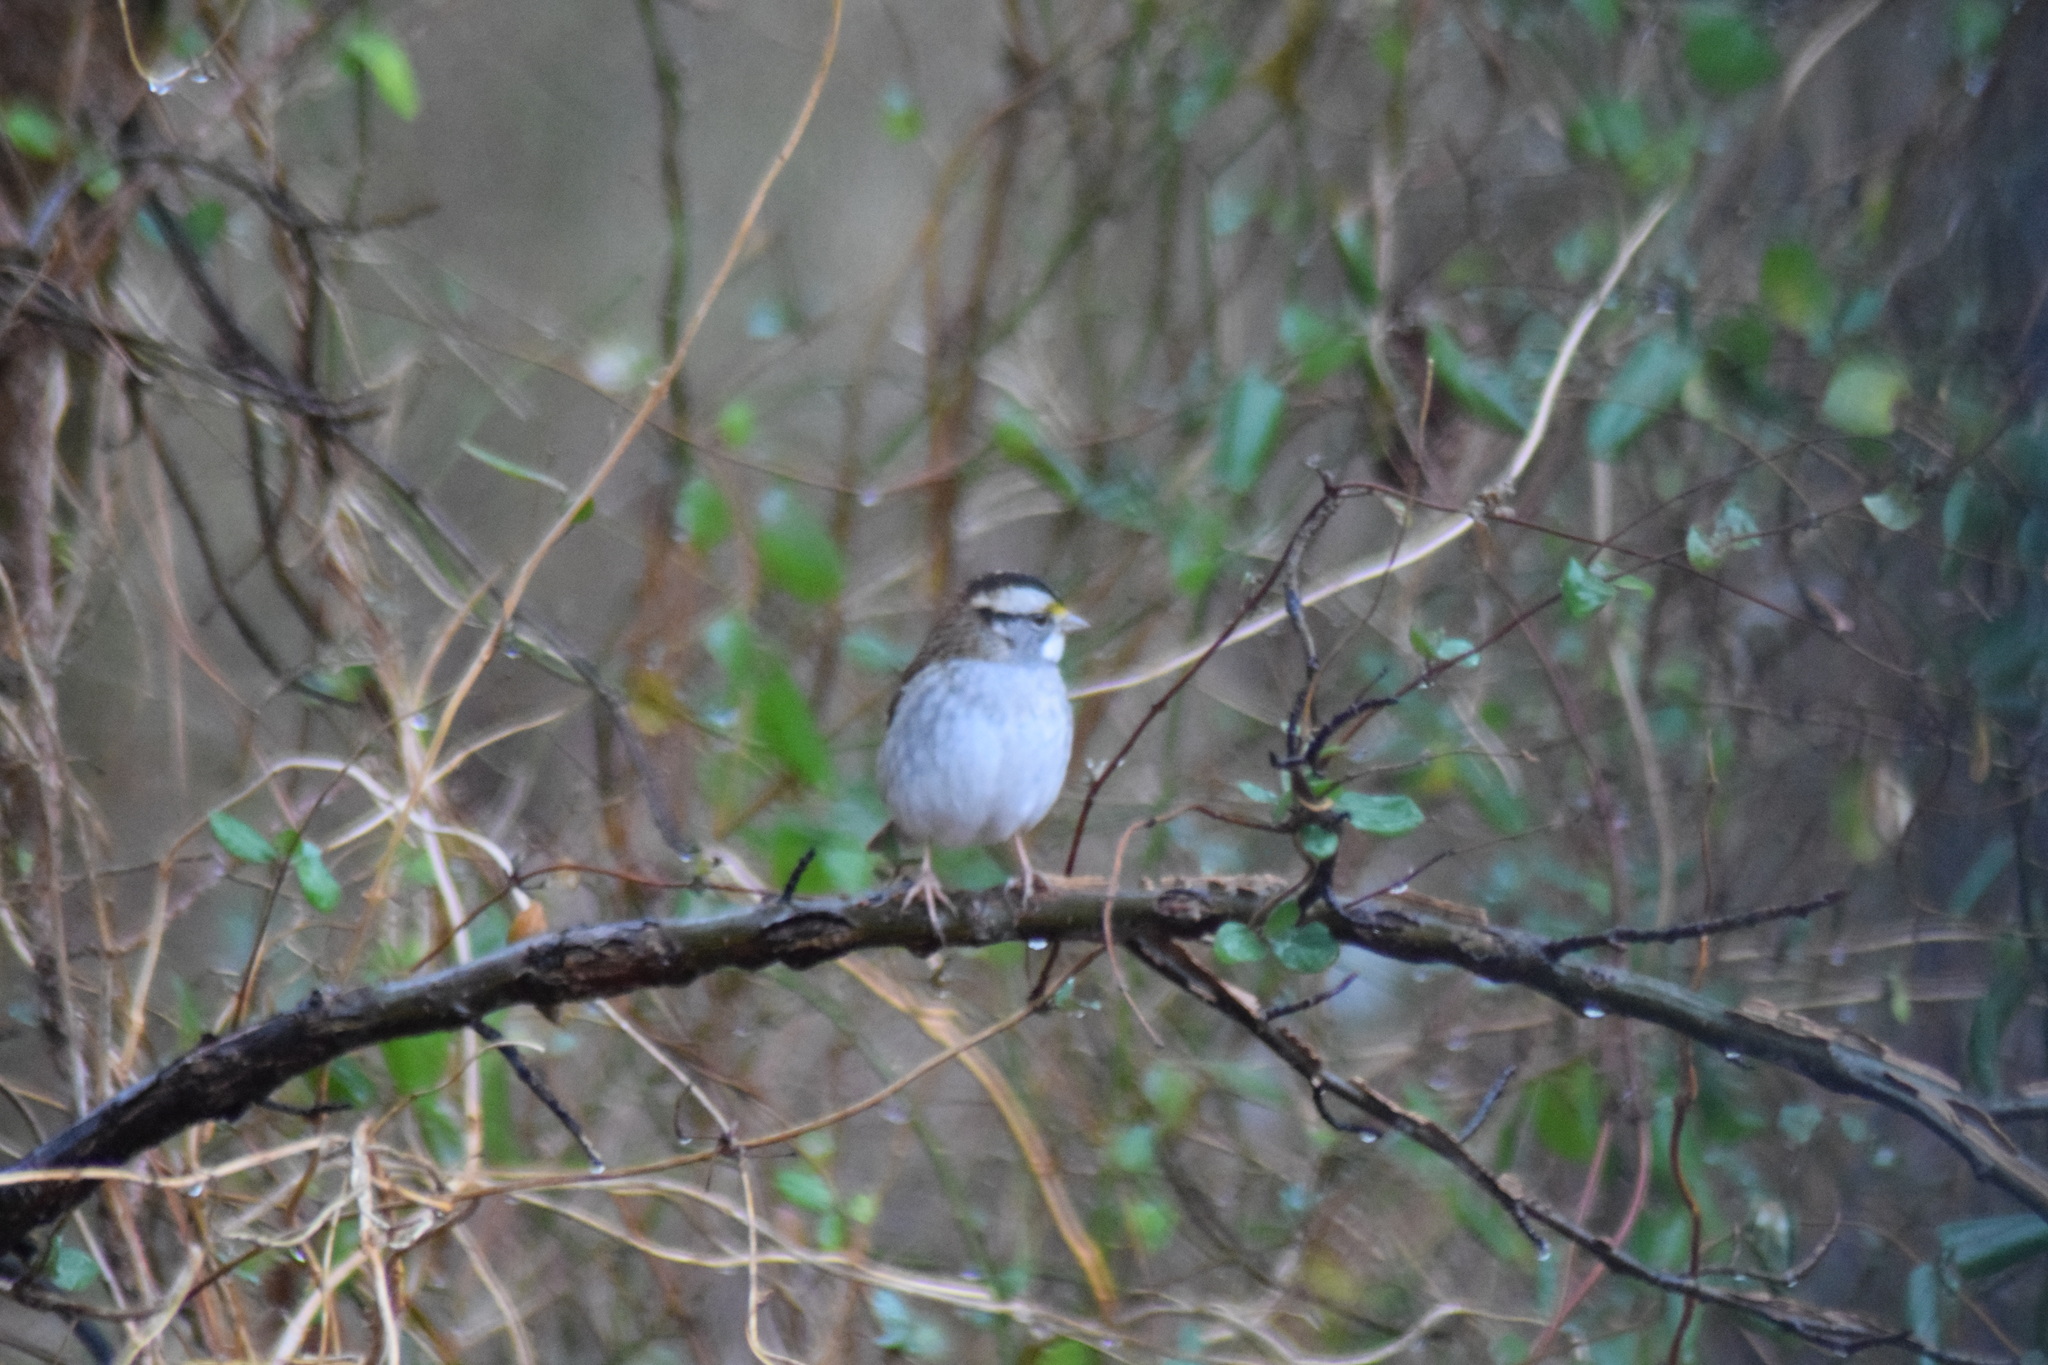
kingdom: Animalia
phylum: Chordata
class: Aves
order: Passeriformes
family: Passerellidae
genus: Zonotrichia
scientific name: Zonotrichia albicollis
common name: White-throated sparrow
